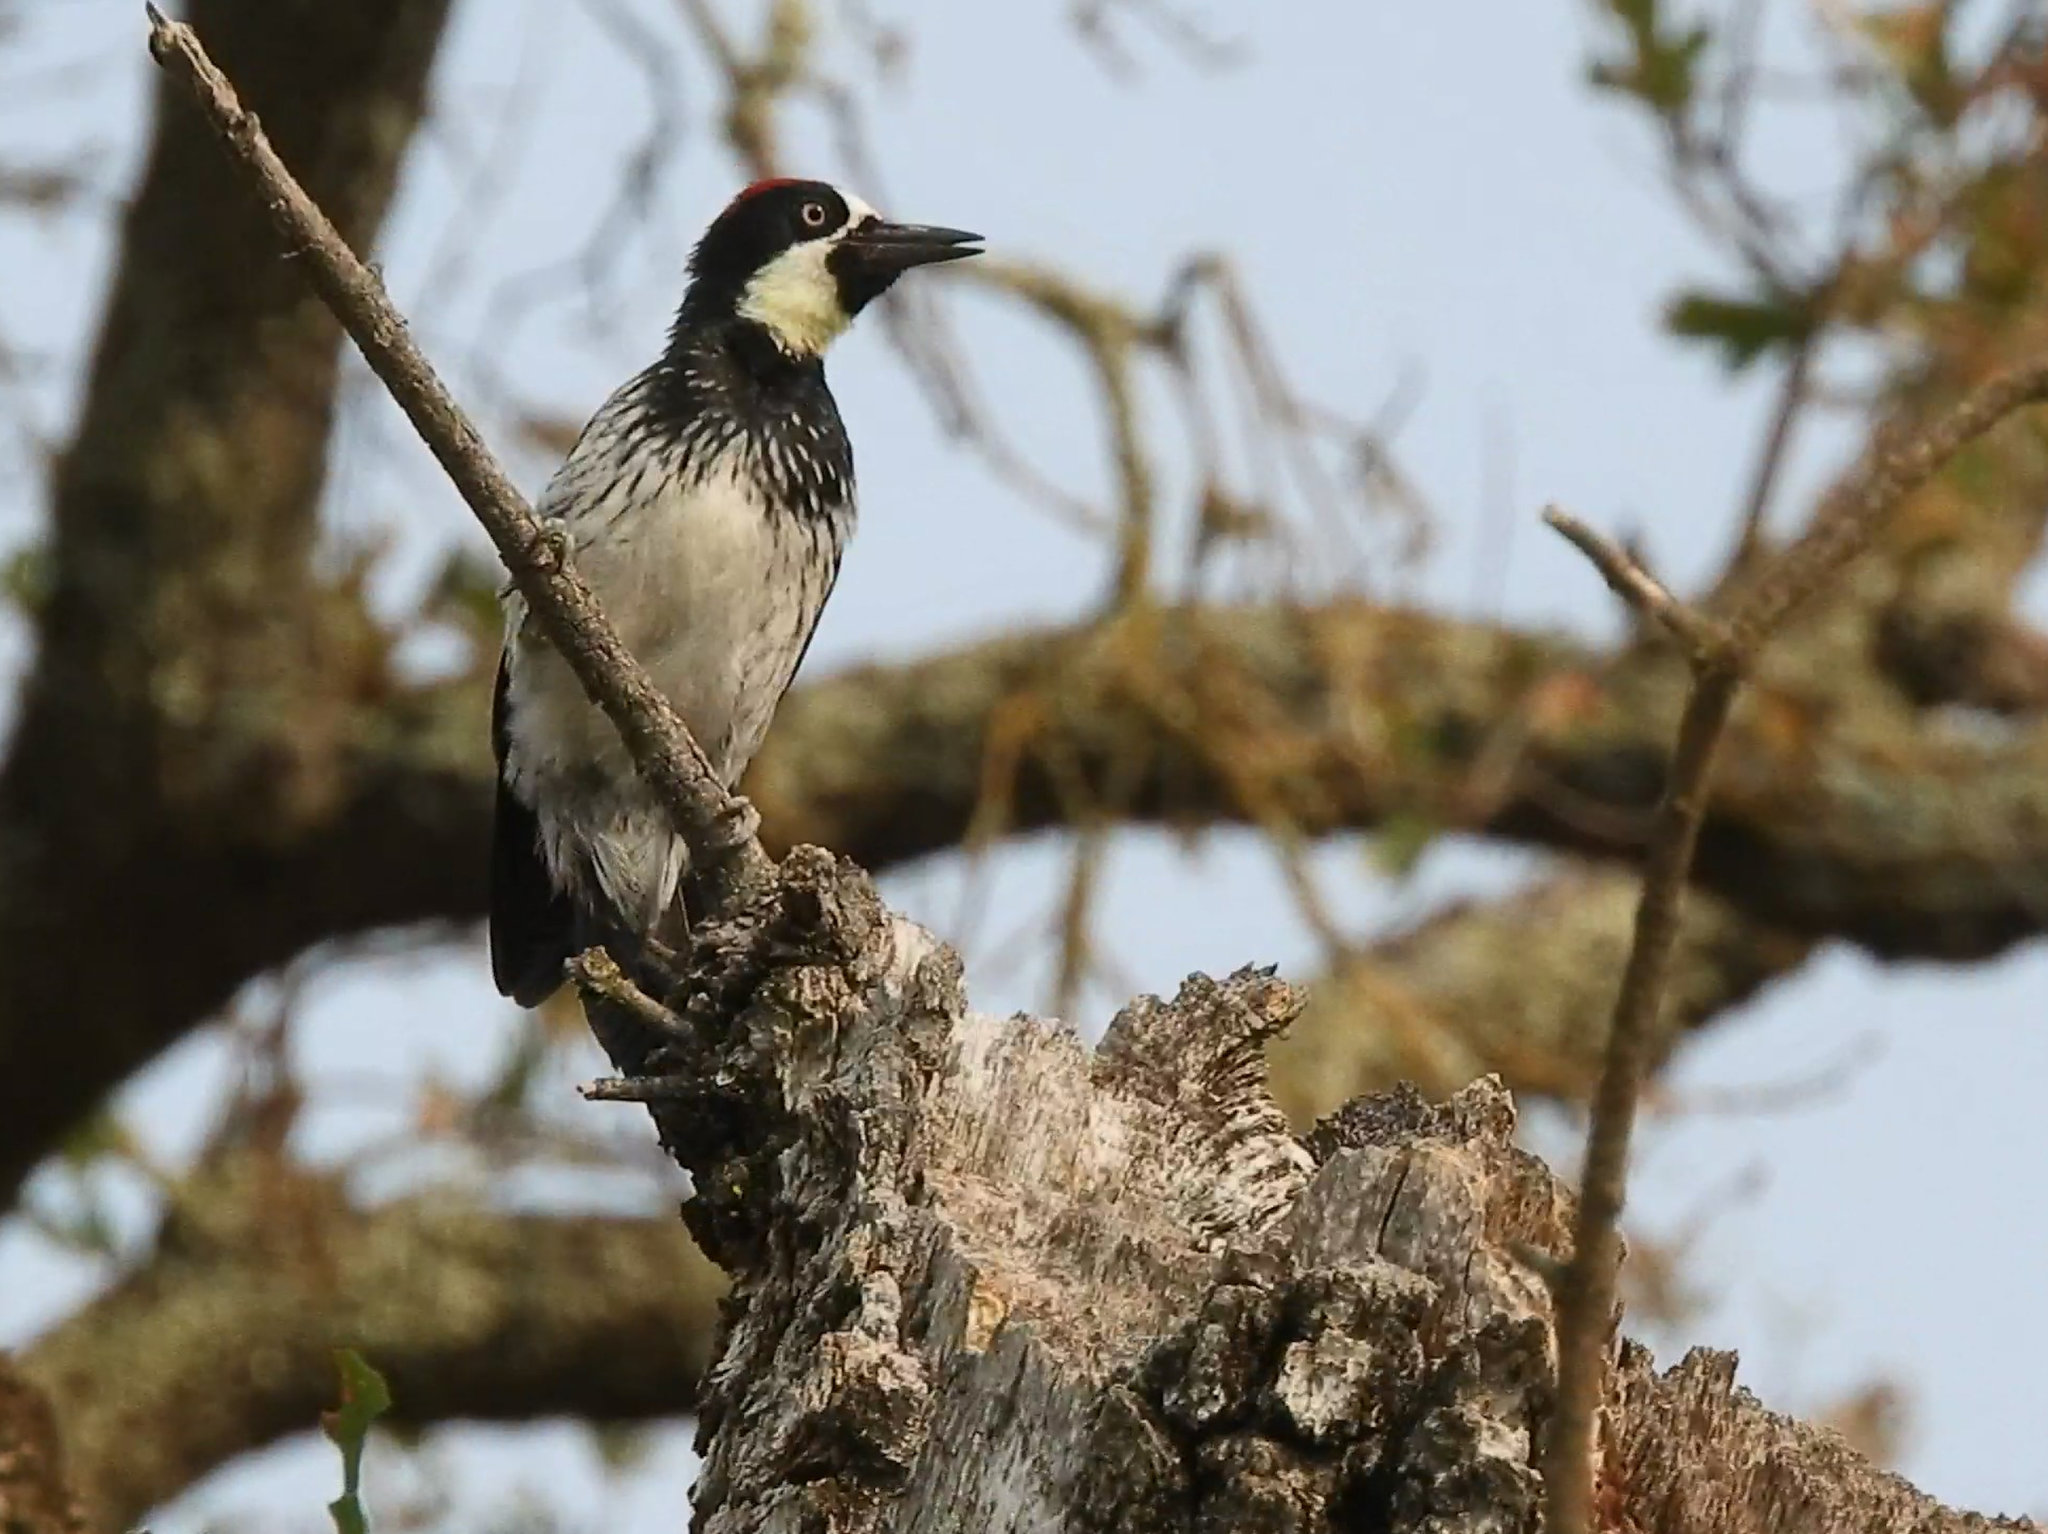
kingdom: Animalia
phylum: Chordata
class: Aves
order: Piciformes
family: Picidae
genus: Melanerpes
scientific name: Melanerpes formicivorus
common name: Acorn woodpecker
